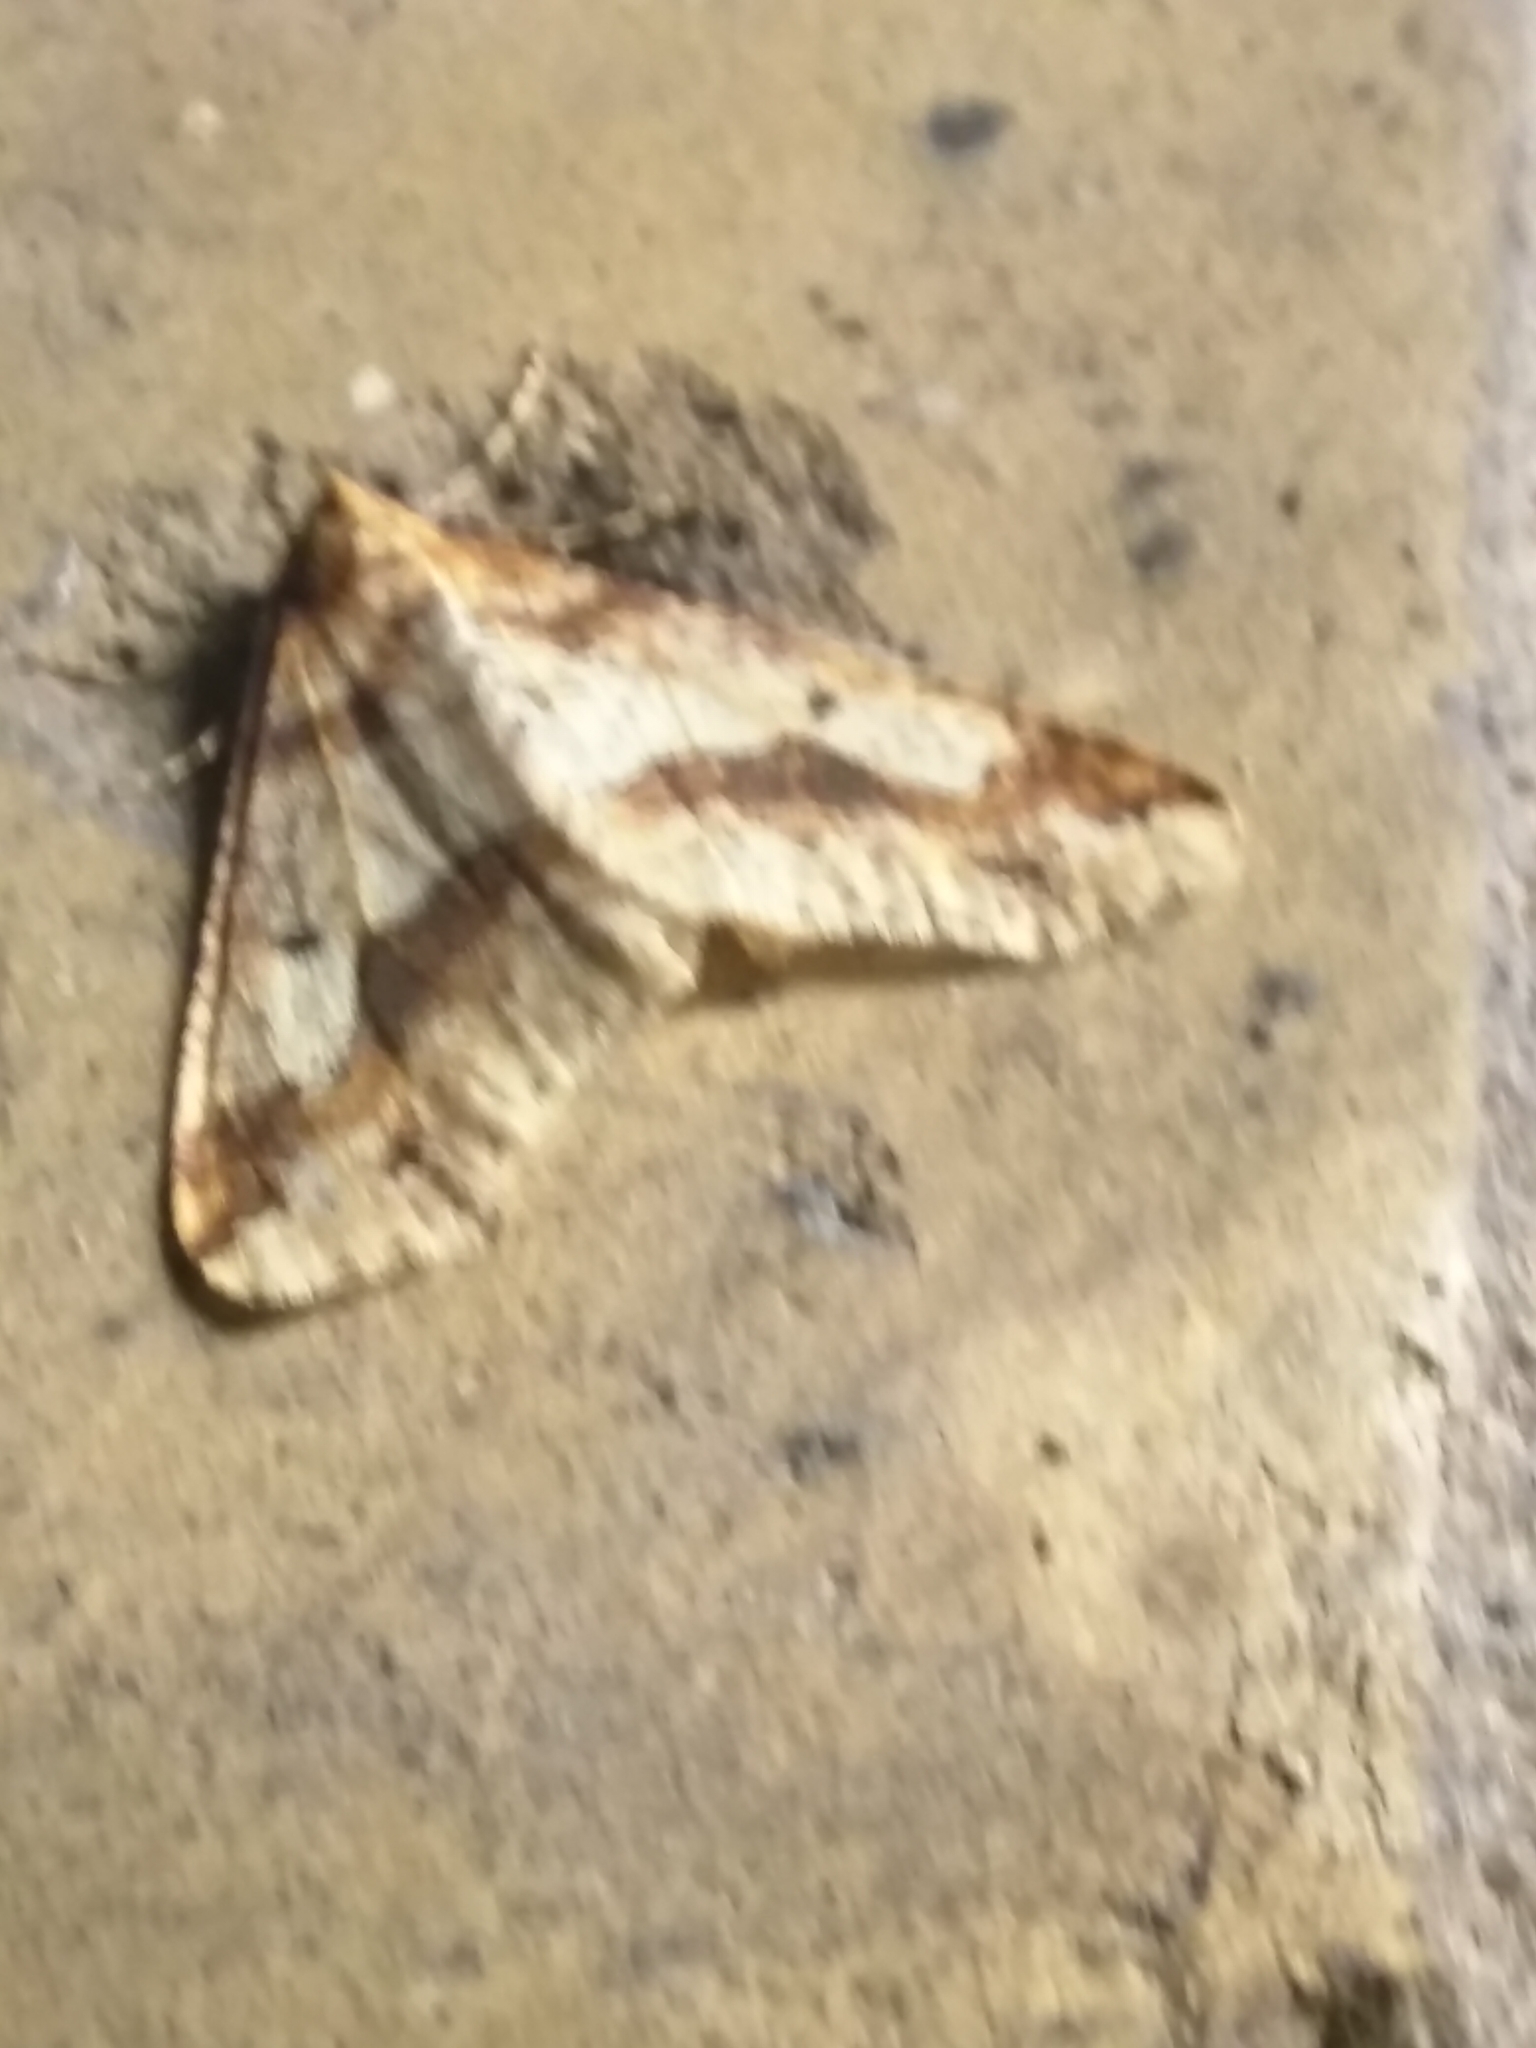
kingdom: Animalia
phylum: Arthropoda
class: Insecta
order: Lepidoptera
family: Geometridae
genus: Erannis
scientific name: Erannis defoliaria
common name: Mottled umber
